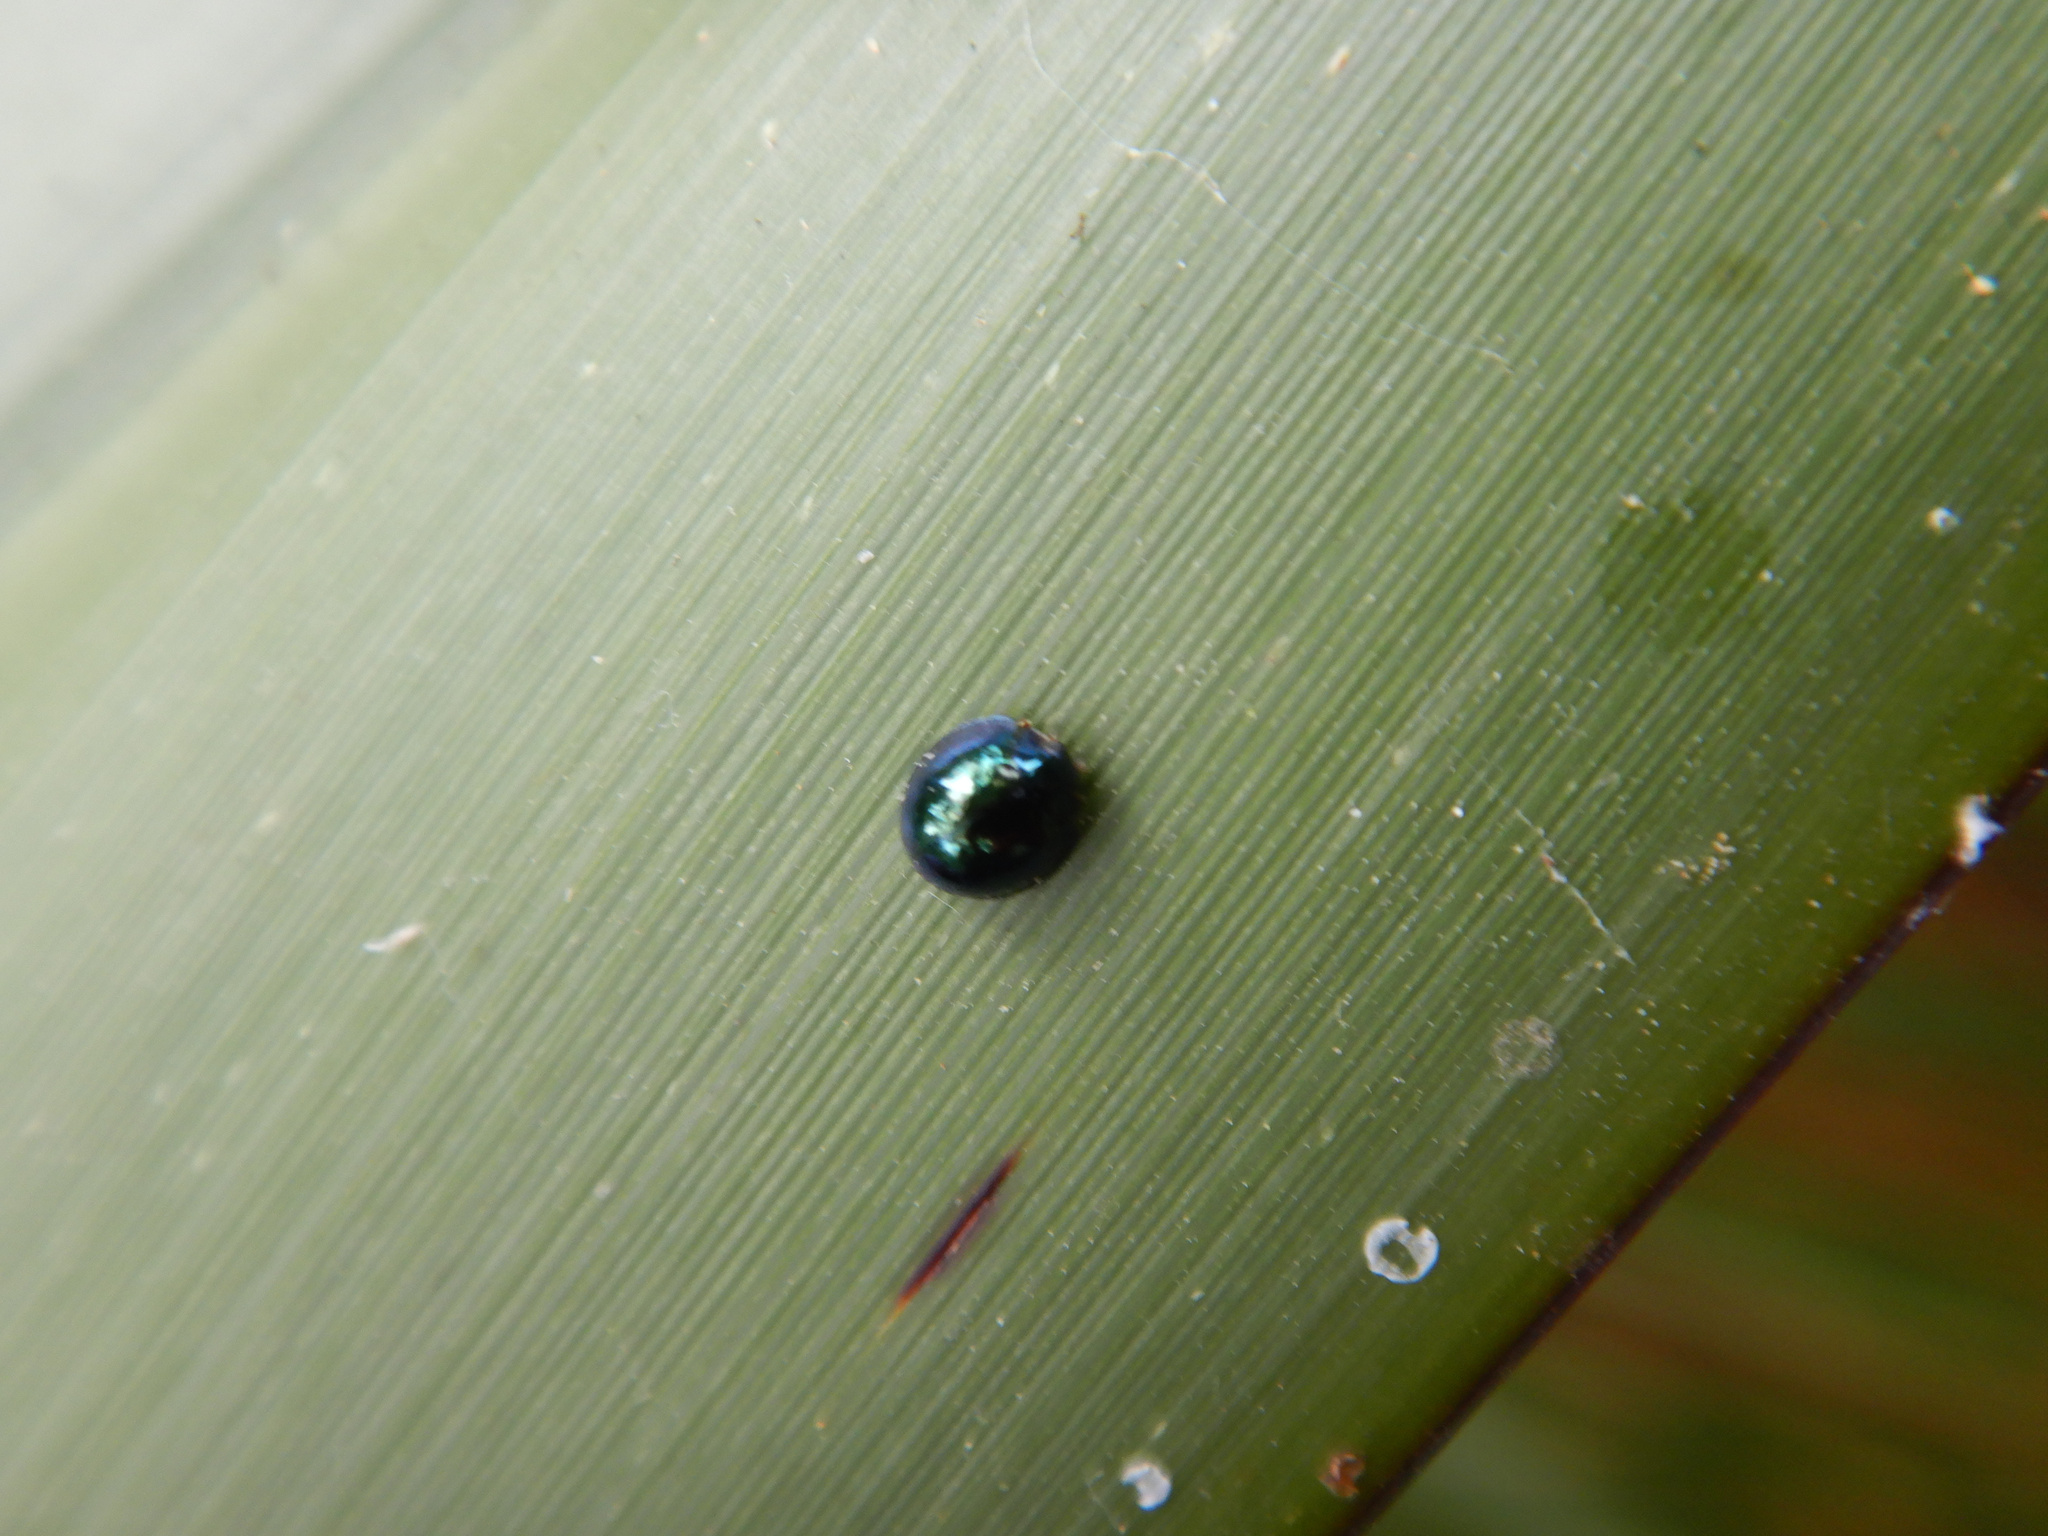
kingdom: Animalia
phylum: Arthropoda
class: Insecta
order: Coleoptera
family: Coccinellidae
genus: Halmus
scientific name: Halmus chalybeus
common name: Steel blue ladybird beetle
